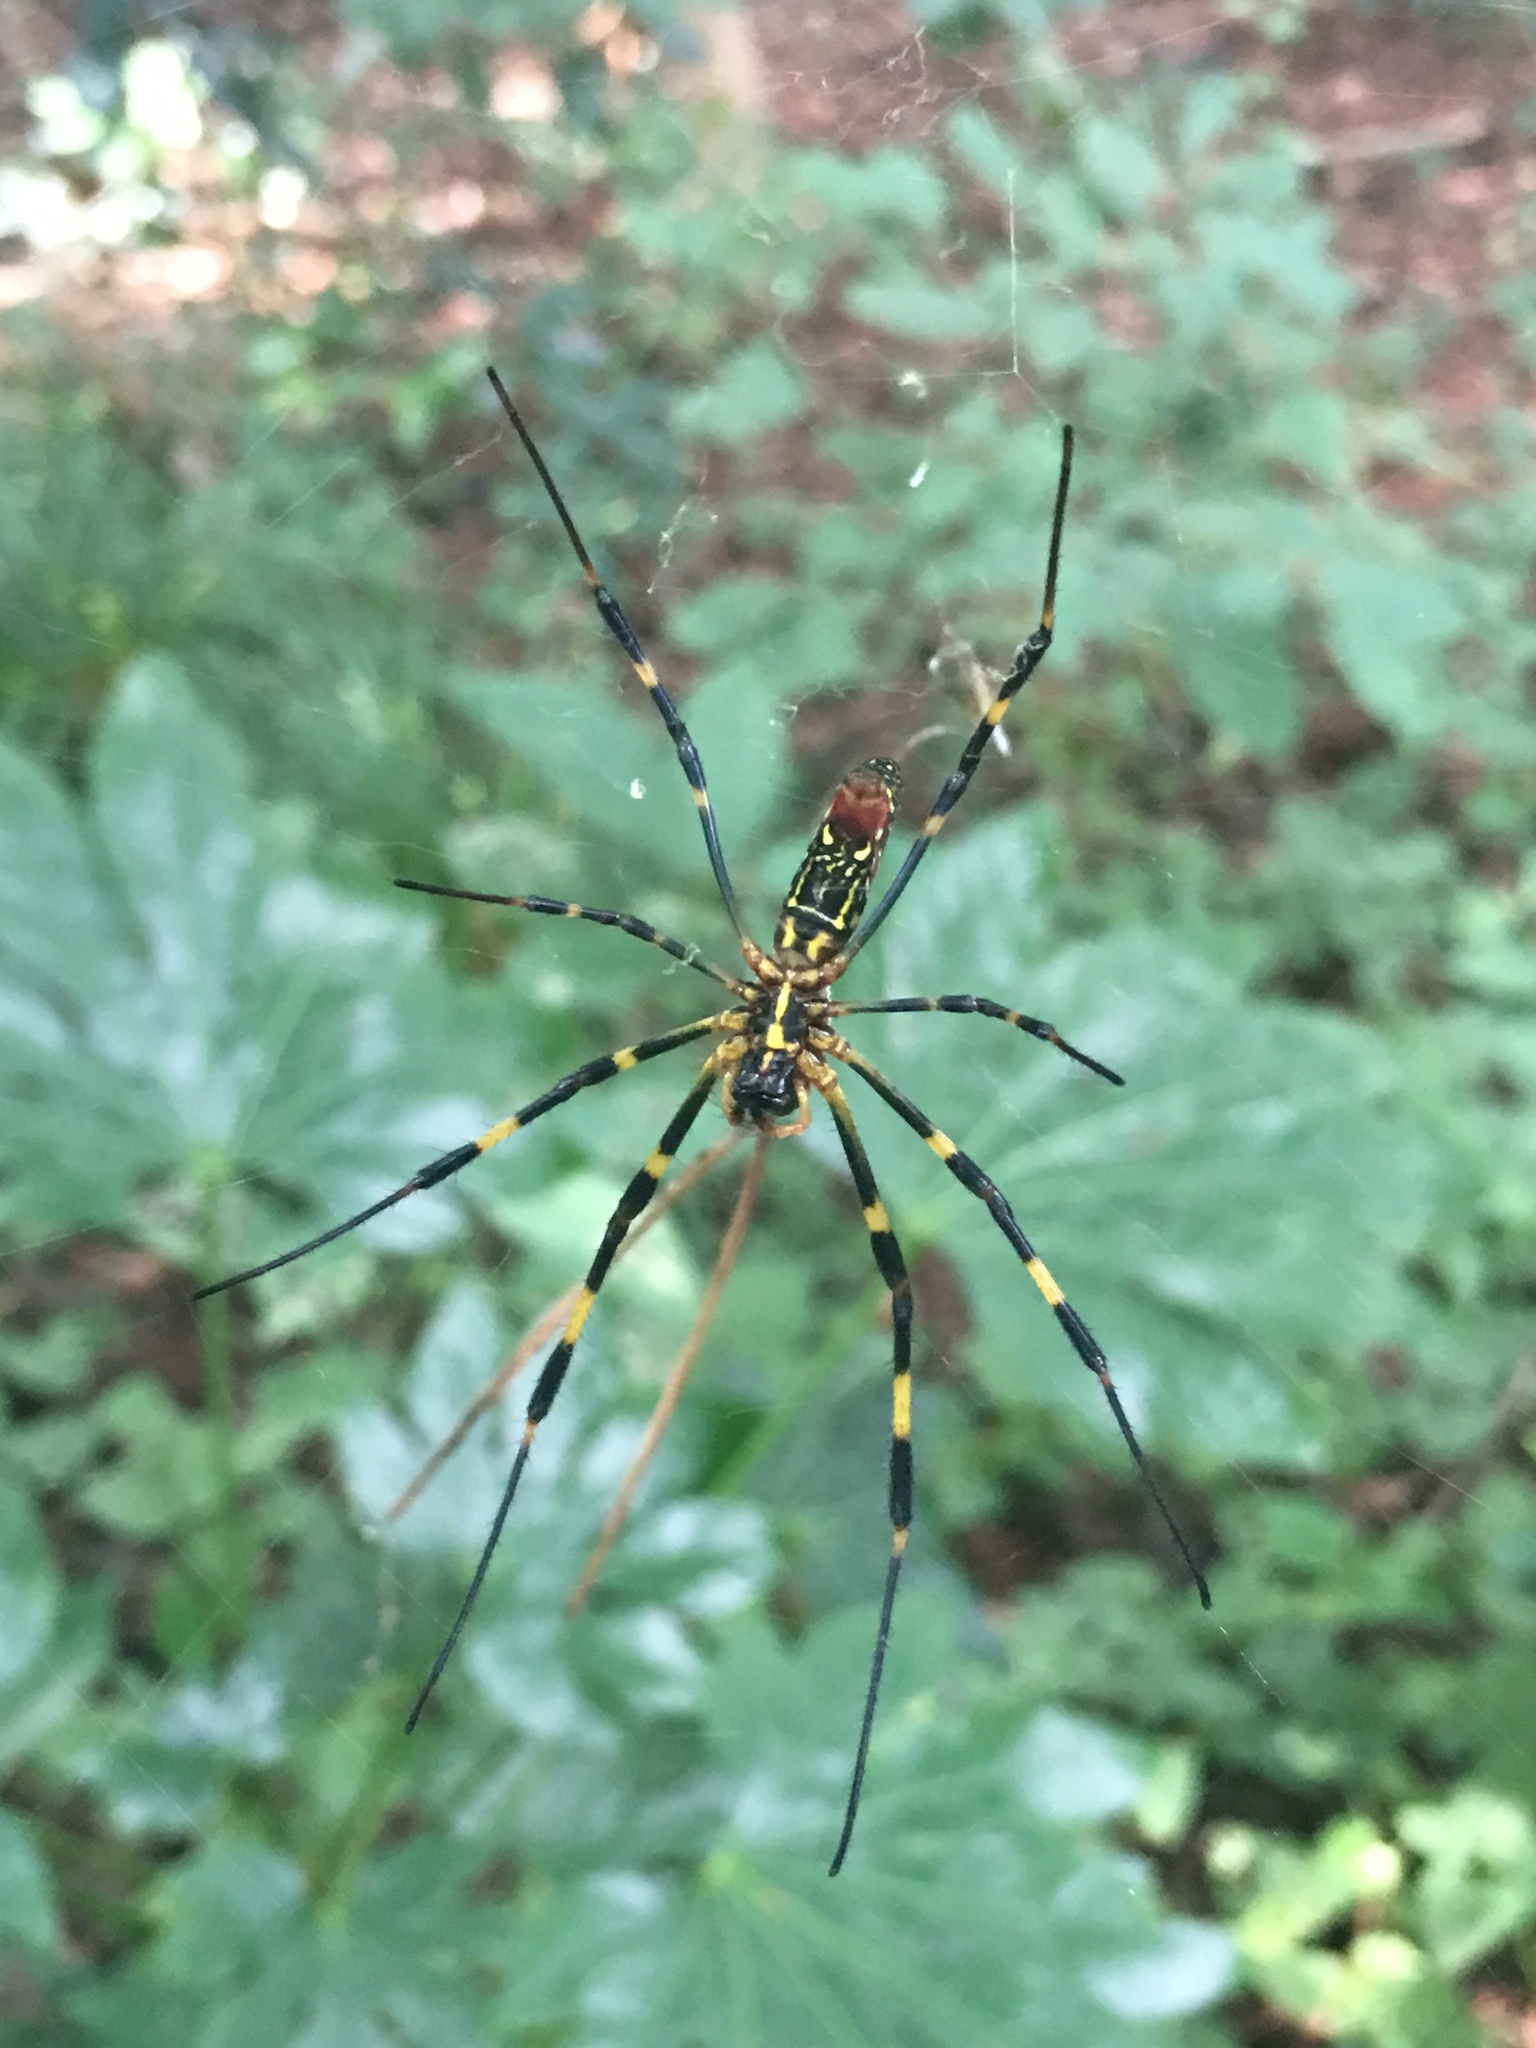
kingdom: Animalia
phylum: Arthropoda
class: Arachnida
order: Araneae
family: Araneidae
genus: Trichonephila
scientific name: Trichonephila clavata
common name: Jorō spider
